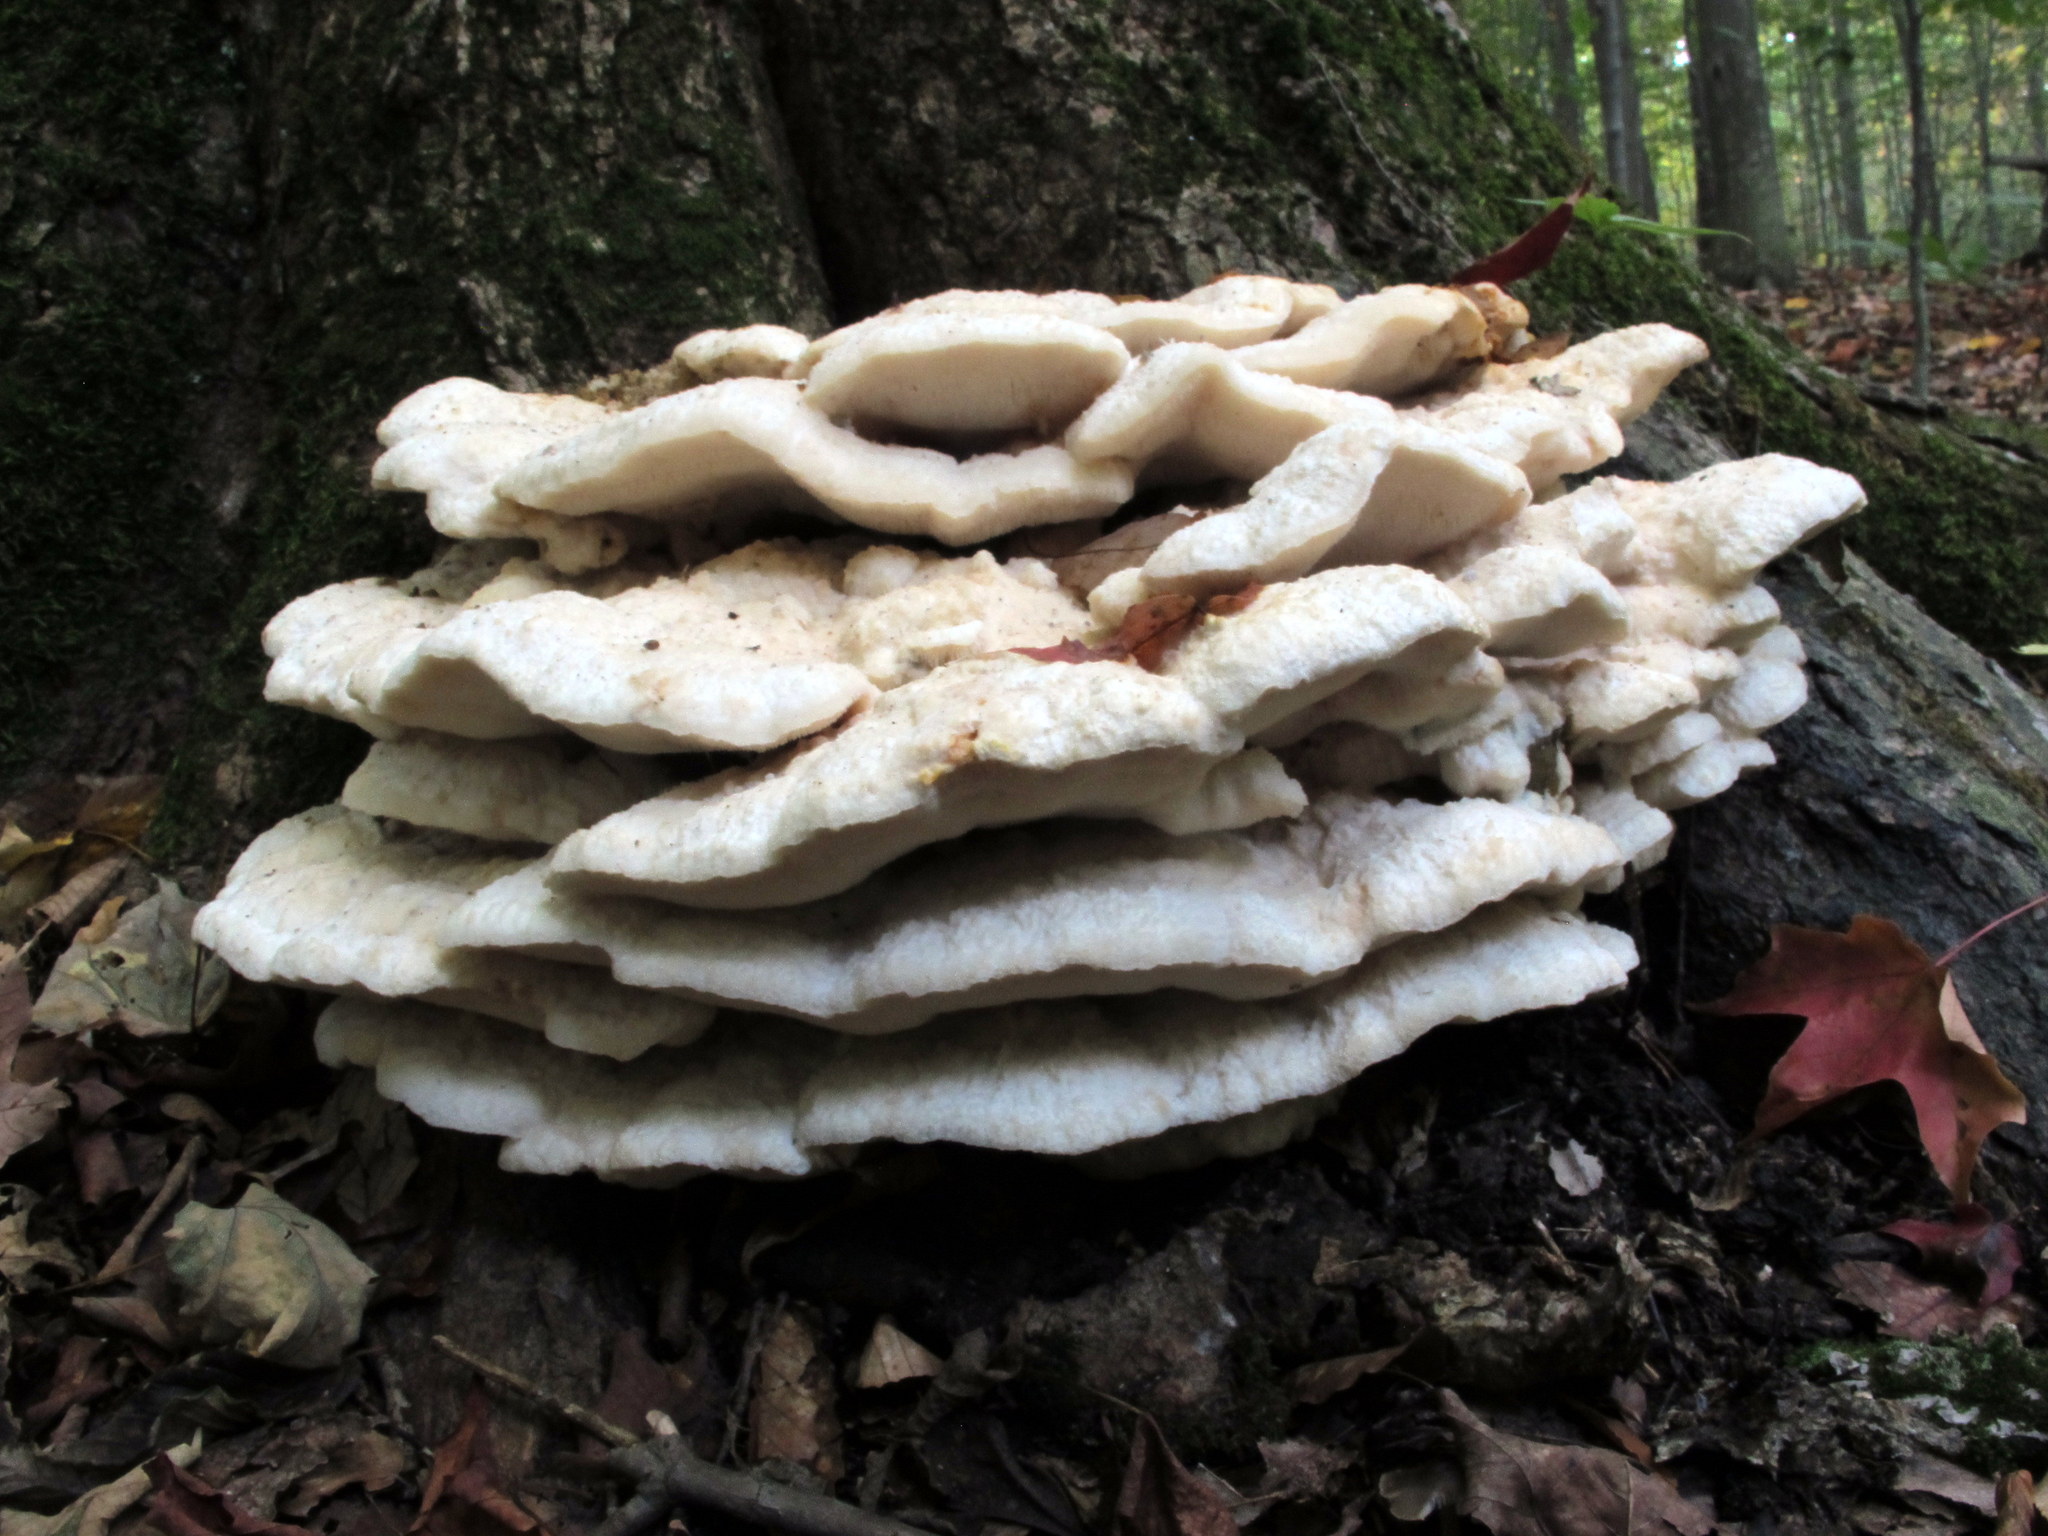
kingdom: Fungi
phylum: Basidiomycota
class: Agaricomycetes
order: Polyporales
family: Meruliaceae
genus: Climacodon
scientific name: Climacodon septentrionalis
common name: Northern tooth
